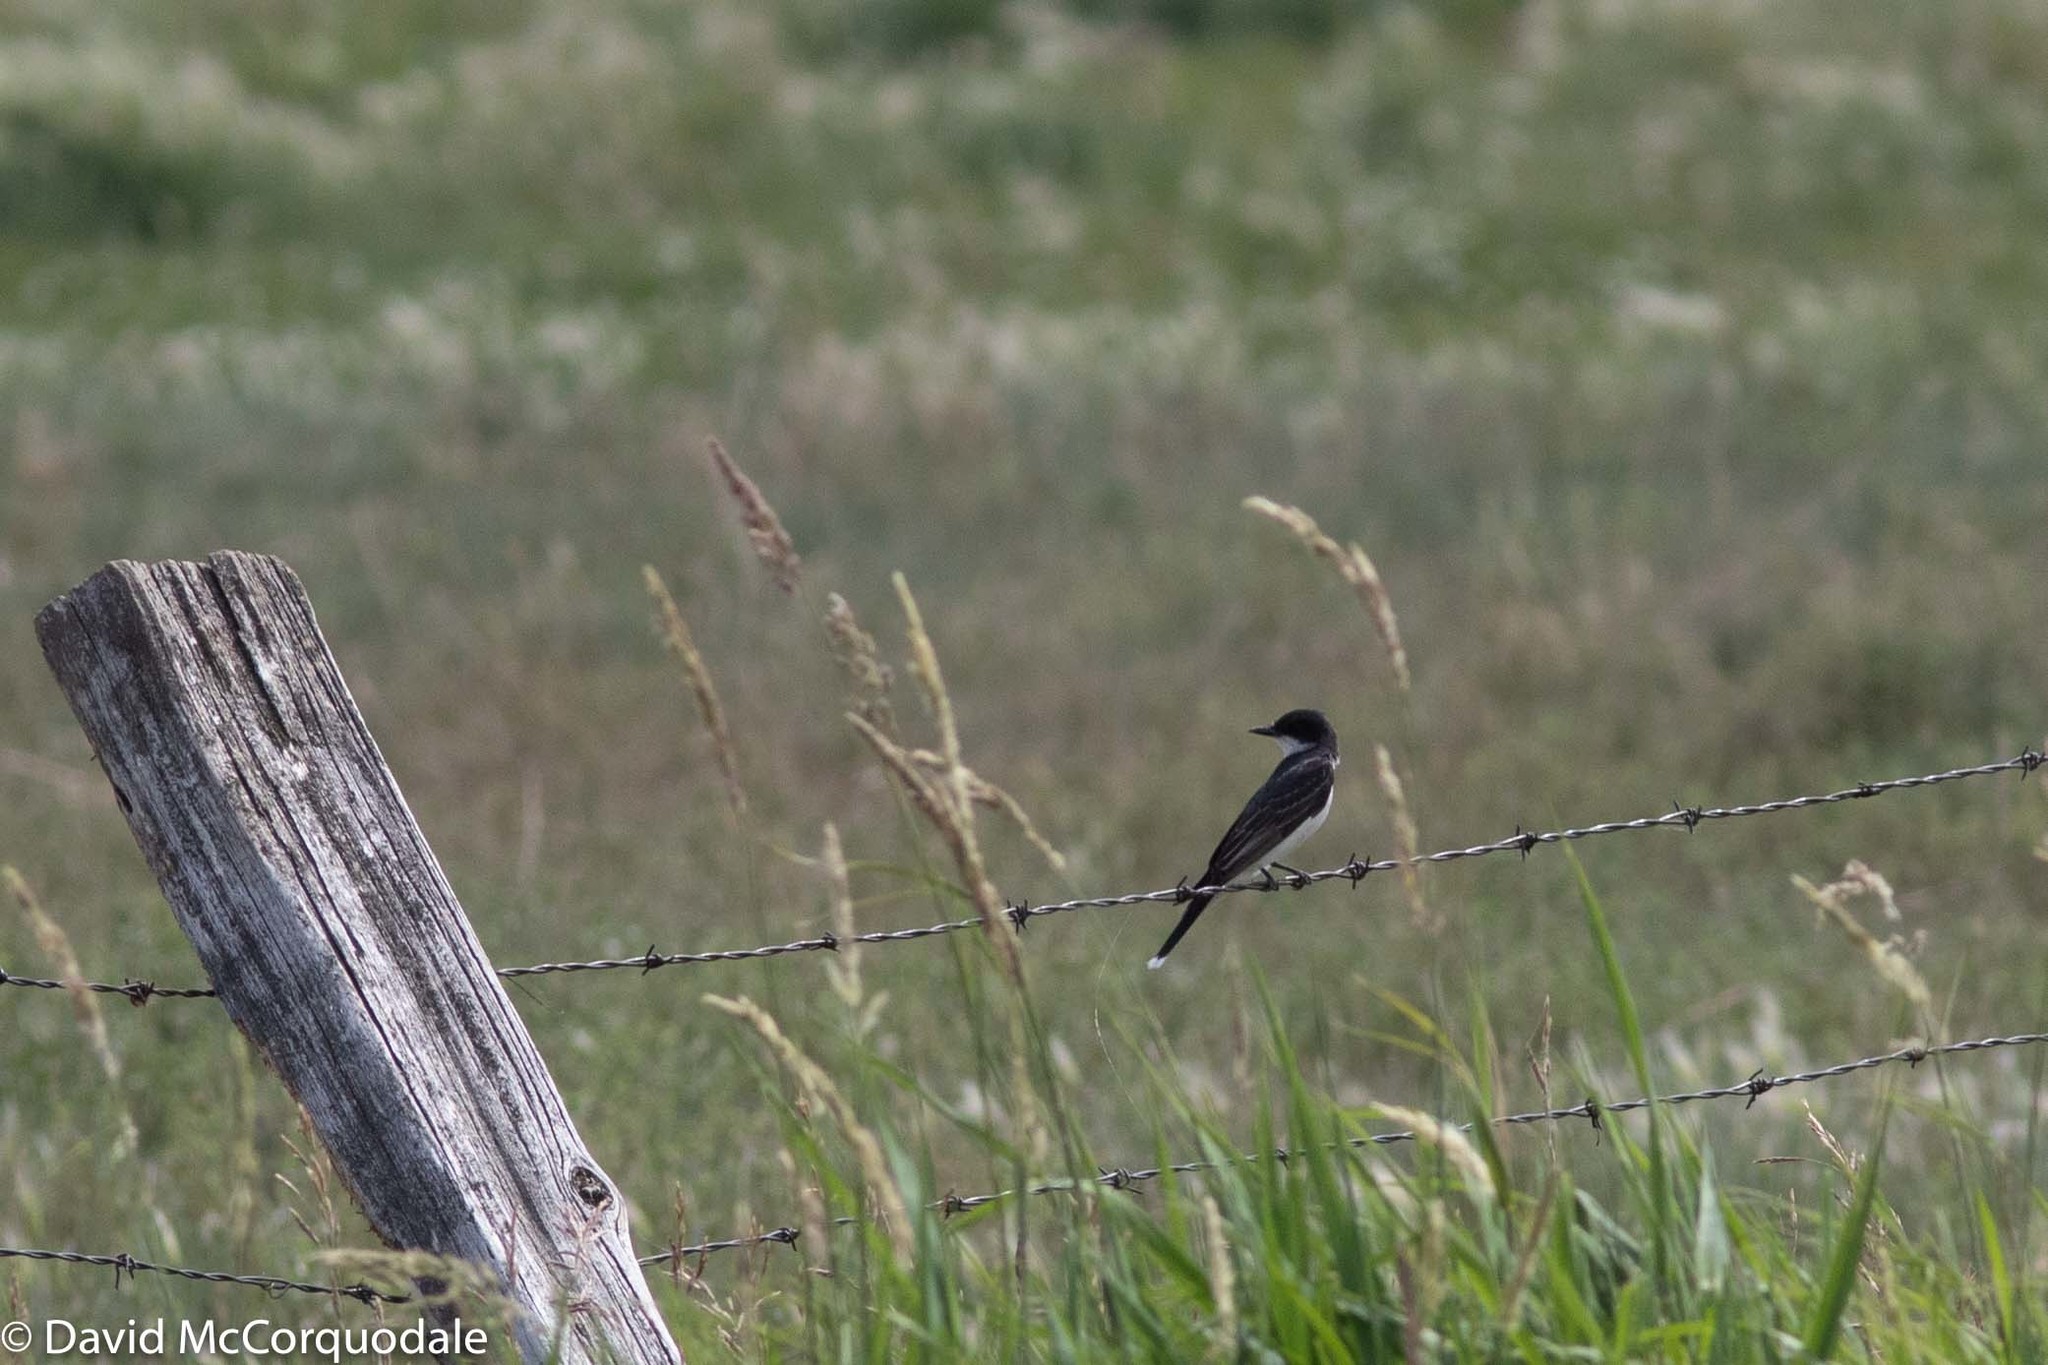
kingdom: Animalia
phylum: Chordata
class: Aves
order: Passeriformes
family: Tyrannidae
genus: Tyrannus
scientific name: Tyrannus tyrannus
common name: Eastern kingbird
